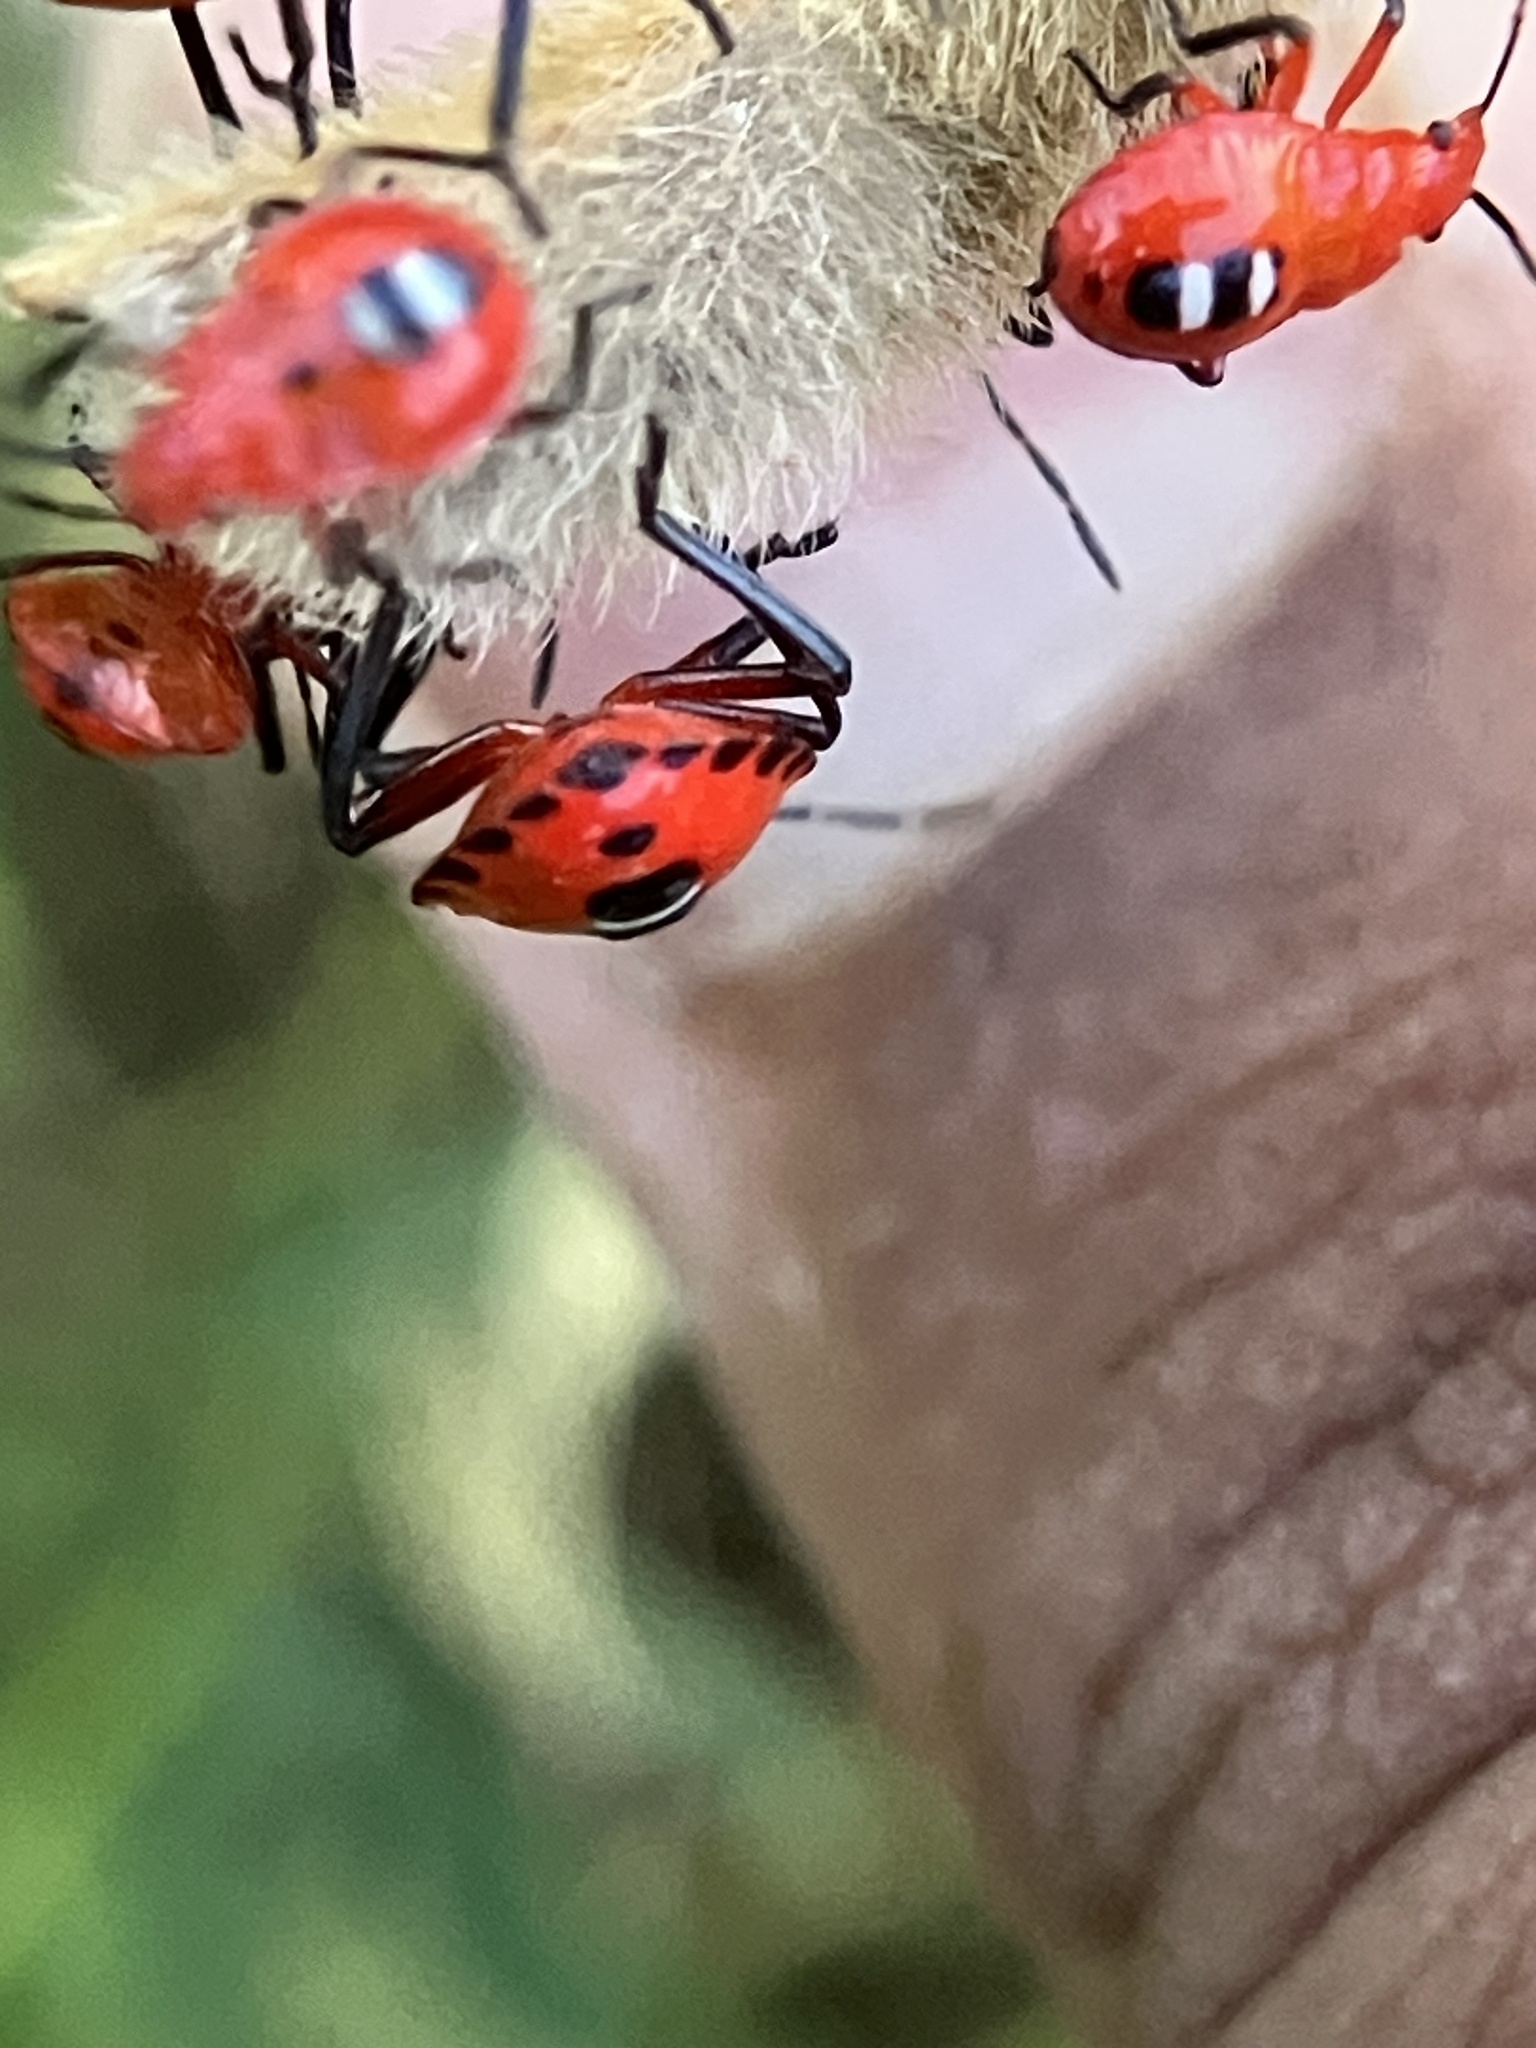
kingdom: Animalia
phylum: Arthropoda
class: Insecta
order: Hemiptera
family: Pentatomidae
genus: Amyotea
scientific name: Amyotea malabarica
